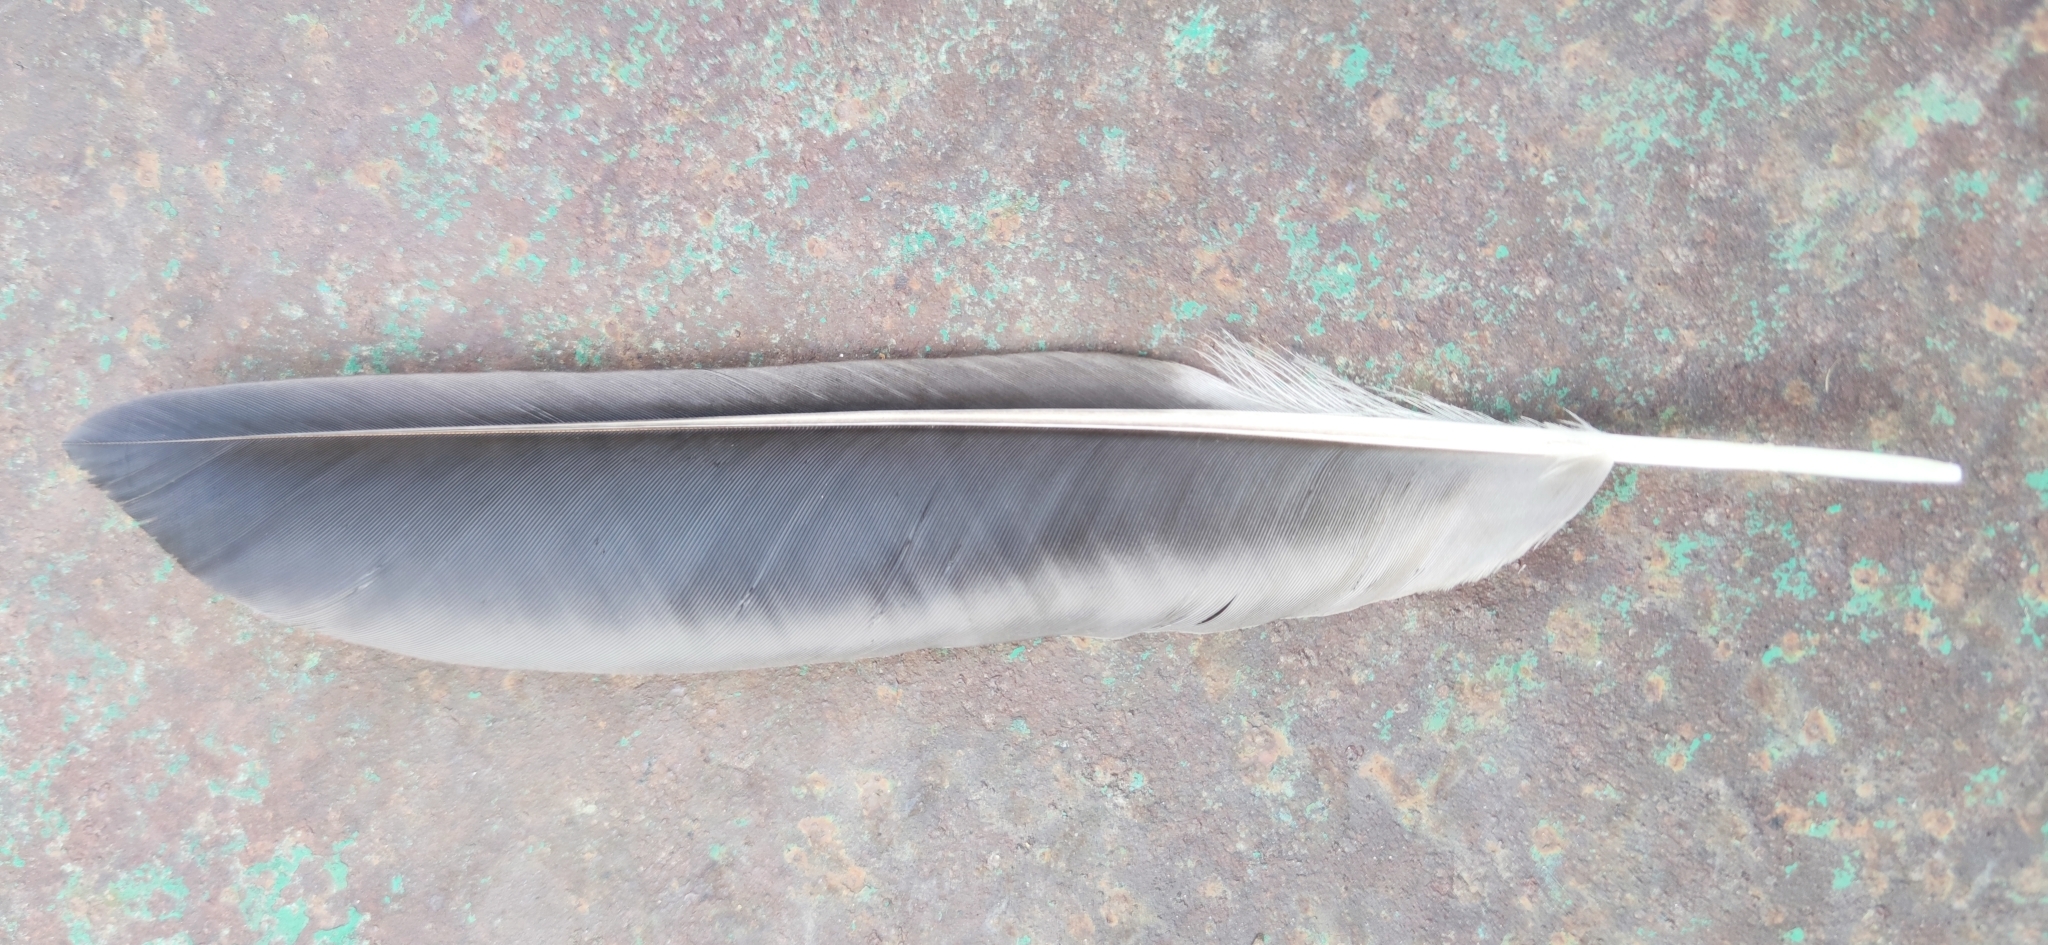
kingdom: Animalia
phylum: Chordata
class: Aves
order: Passeriformes
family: Corvidae
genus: Corvus
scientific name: Corvus cornix
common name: Hooded crow
